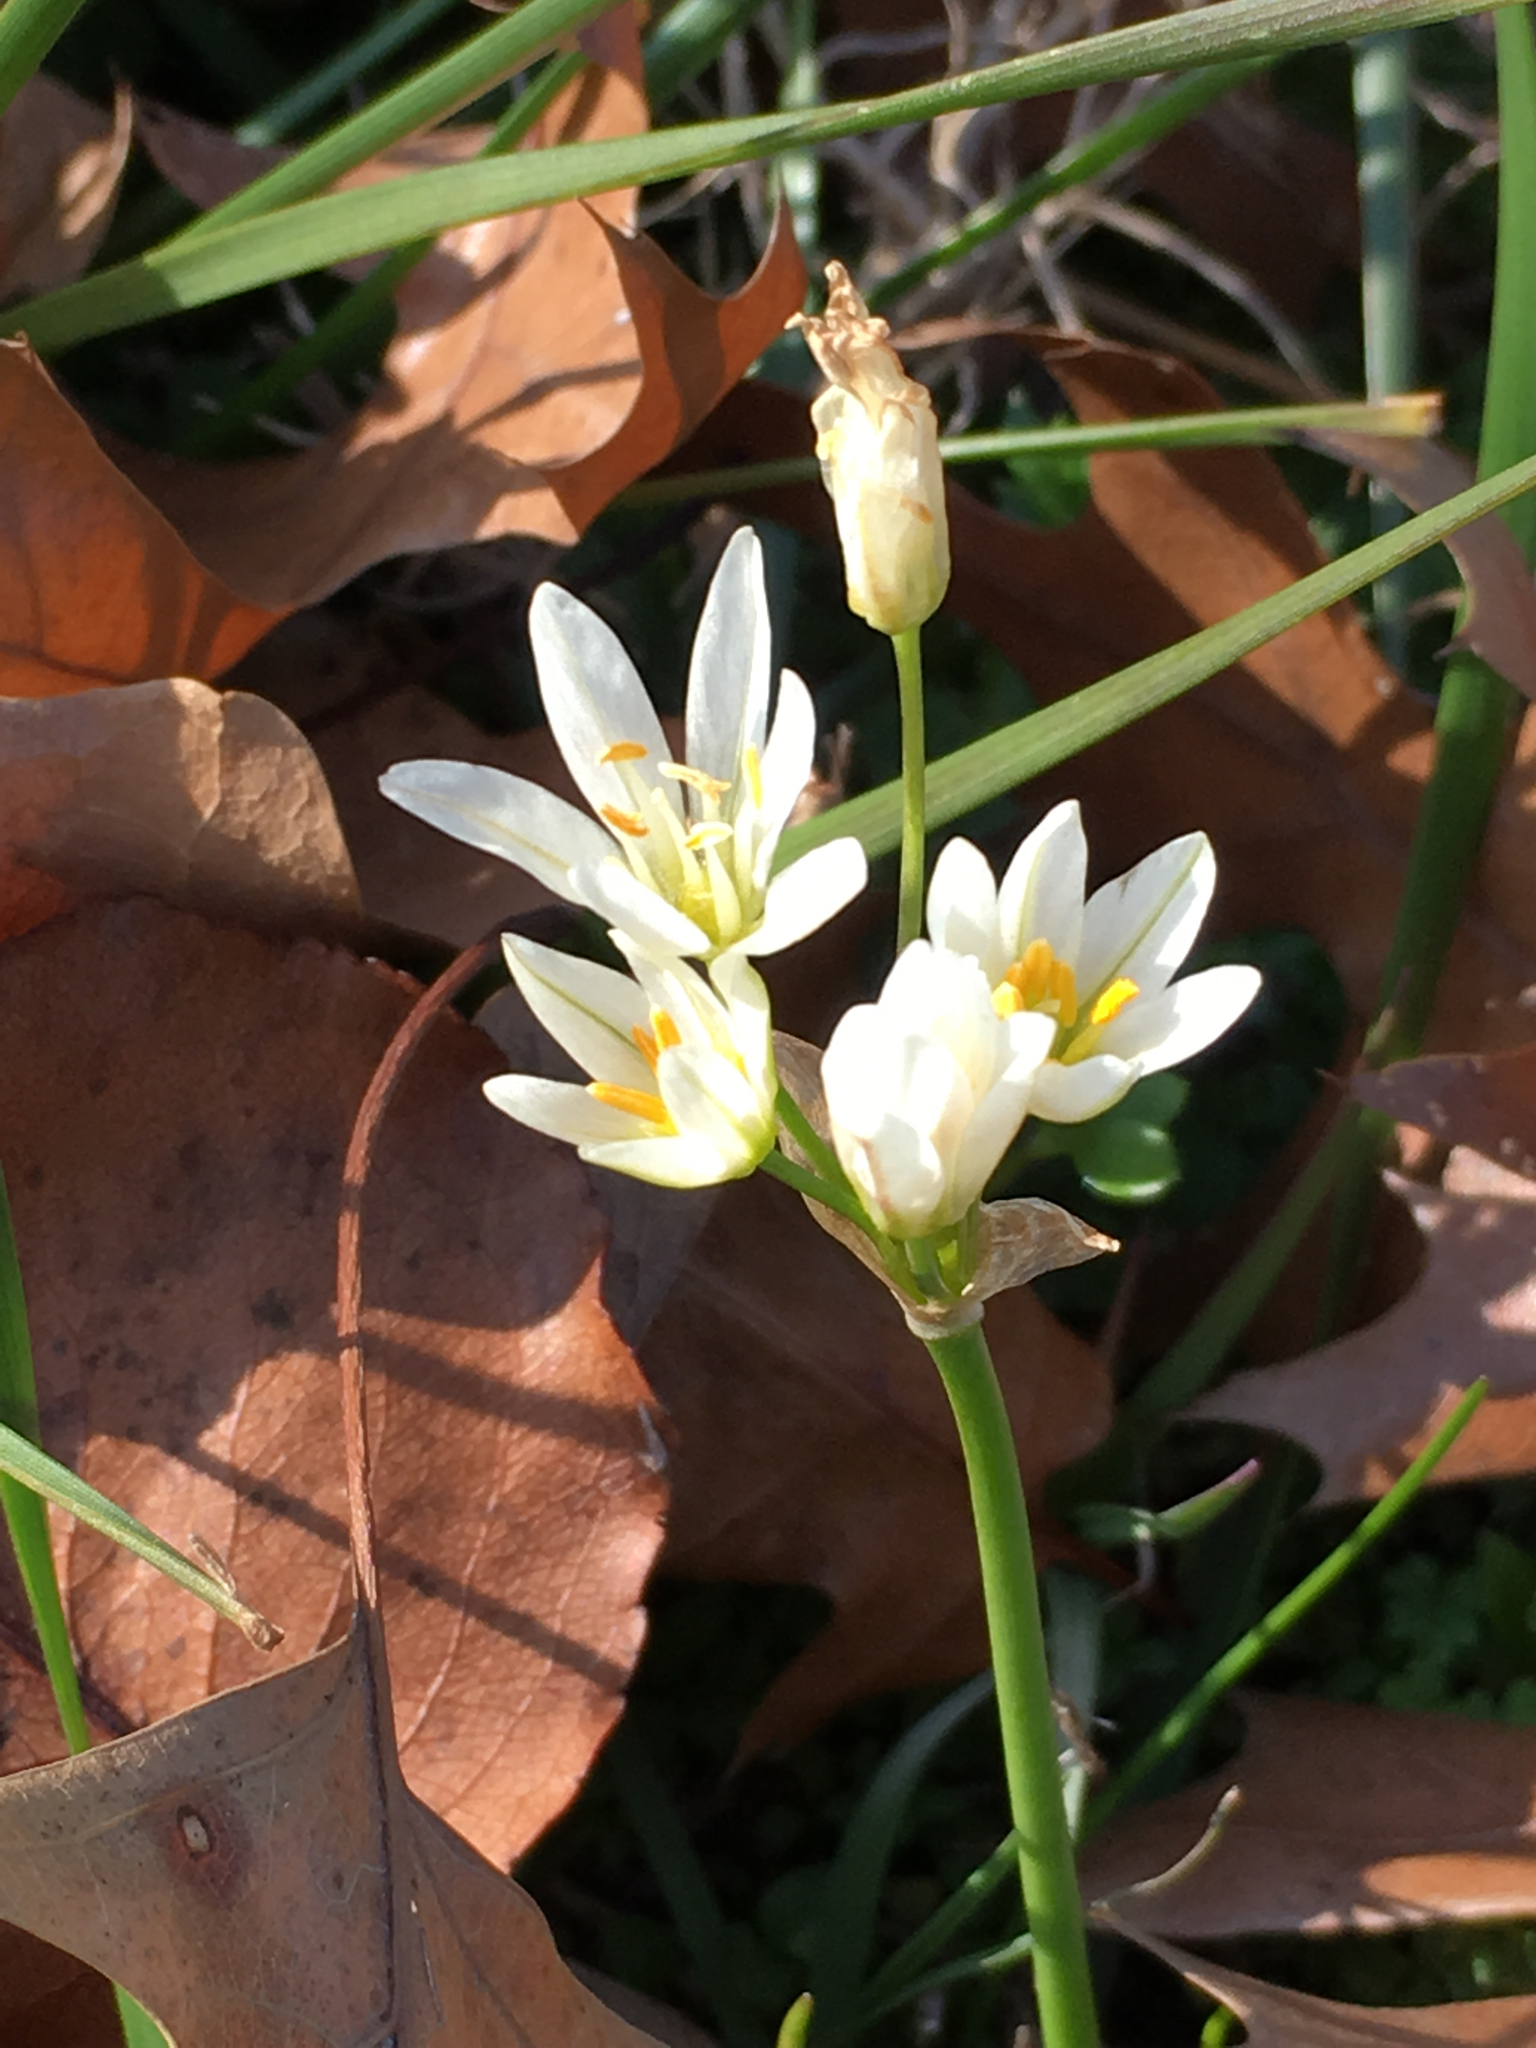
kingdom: Plantae
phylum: Tracheophyta
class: Liliopsida
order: Asparagales
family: Amaryllidaceae
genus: Nothoscordum
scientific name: Nothoscordum bivalve
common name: Crow-poison
